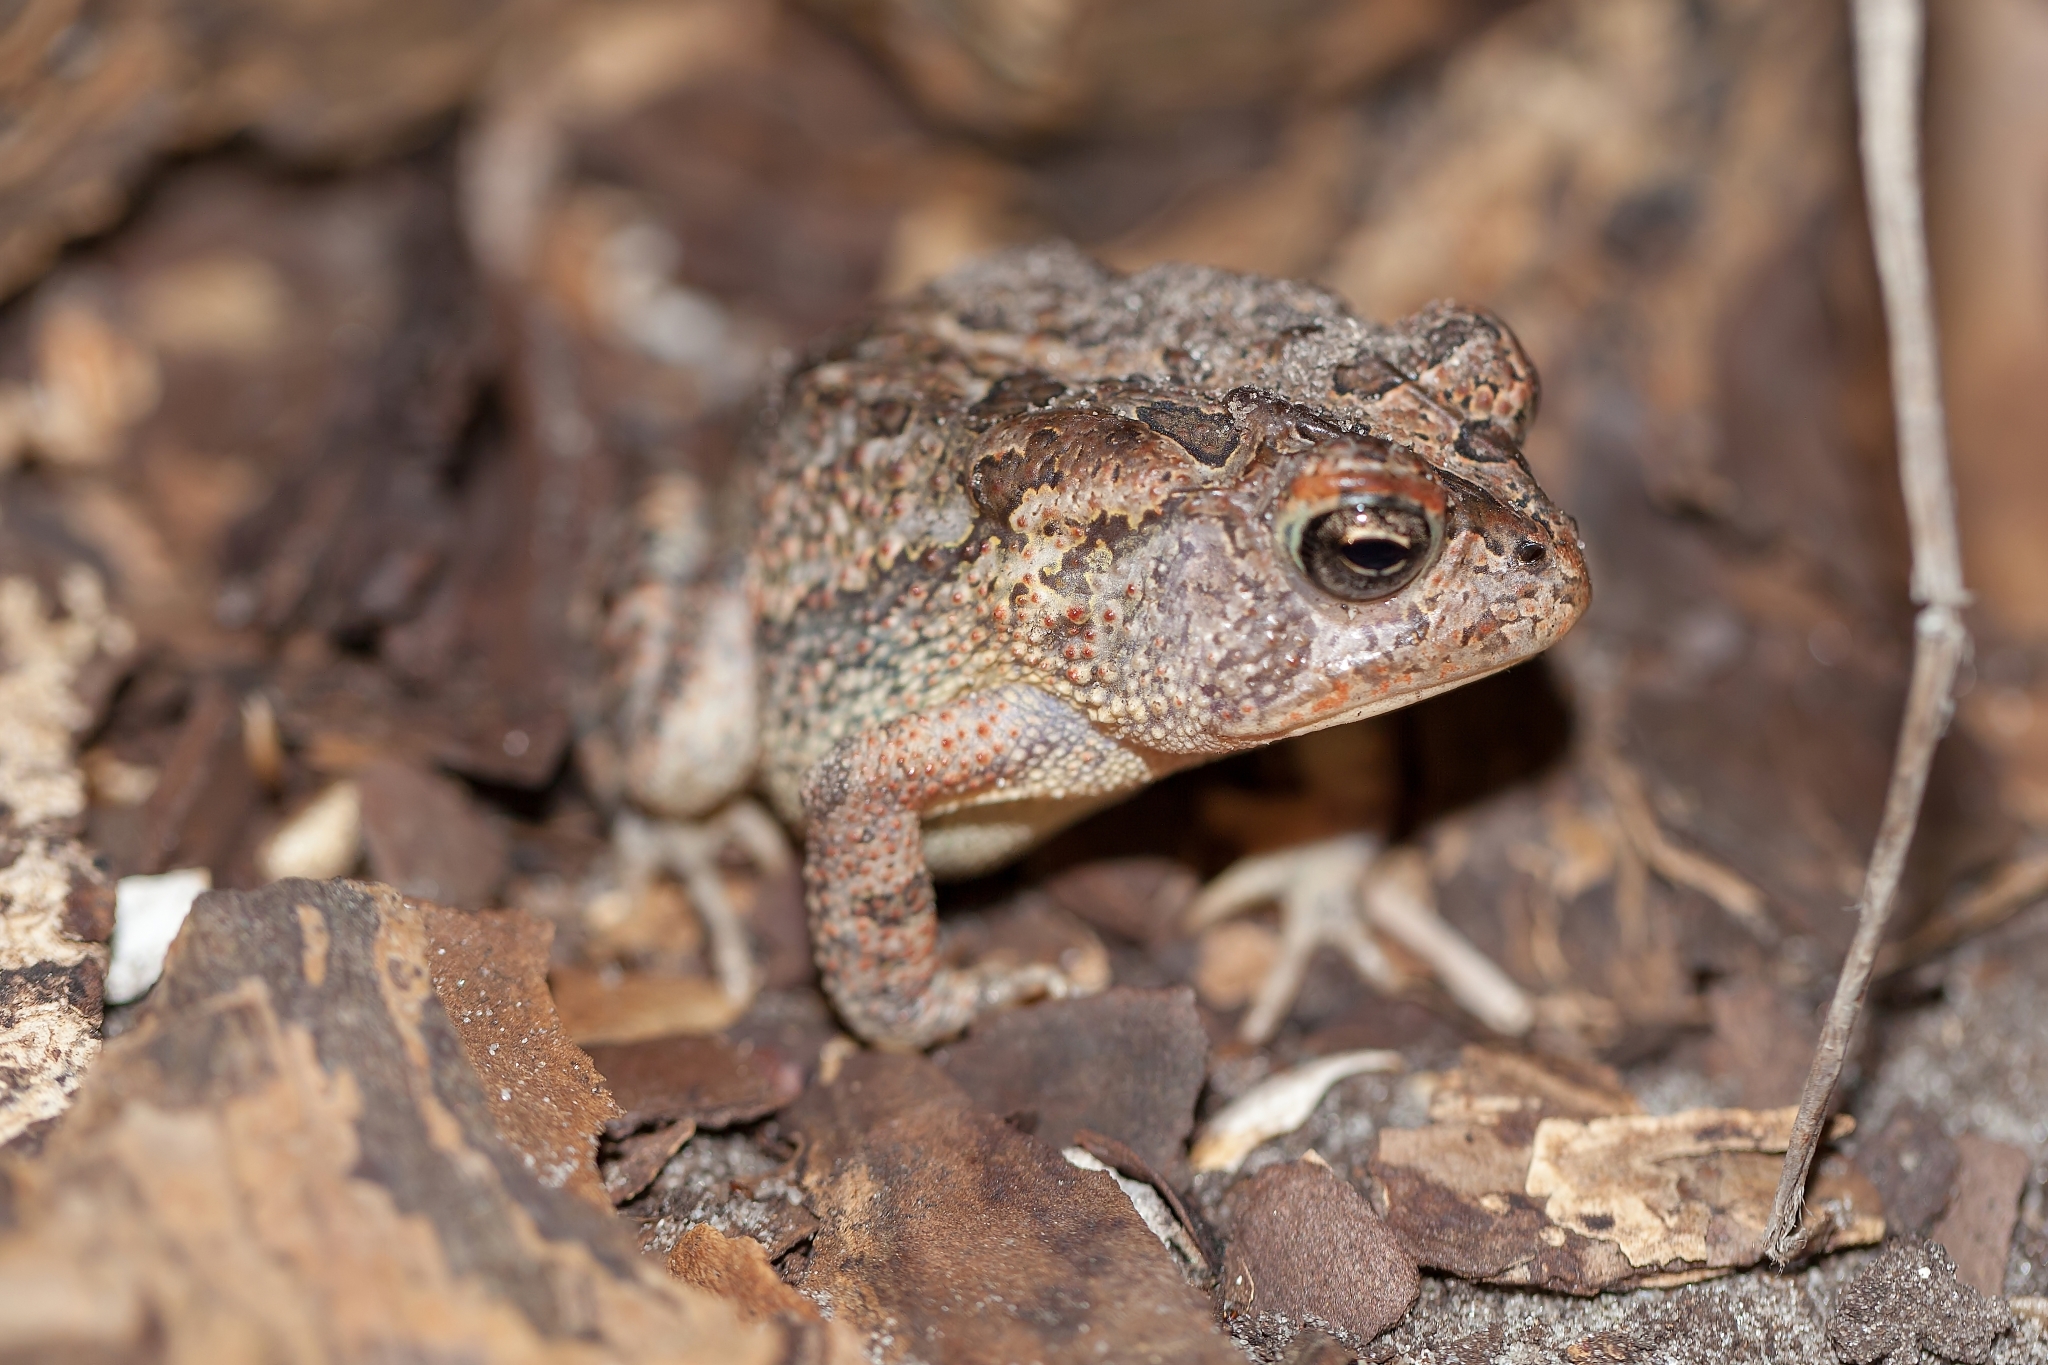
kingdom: Animalia
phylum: Chordata
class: Amphibia
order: Anura
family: Bufonidae
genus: Anaxyrus
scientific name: Anaxyrus terrestris
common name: Southern toad
